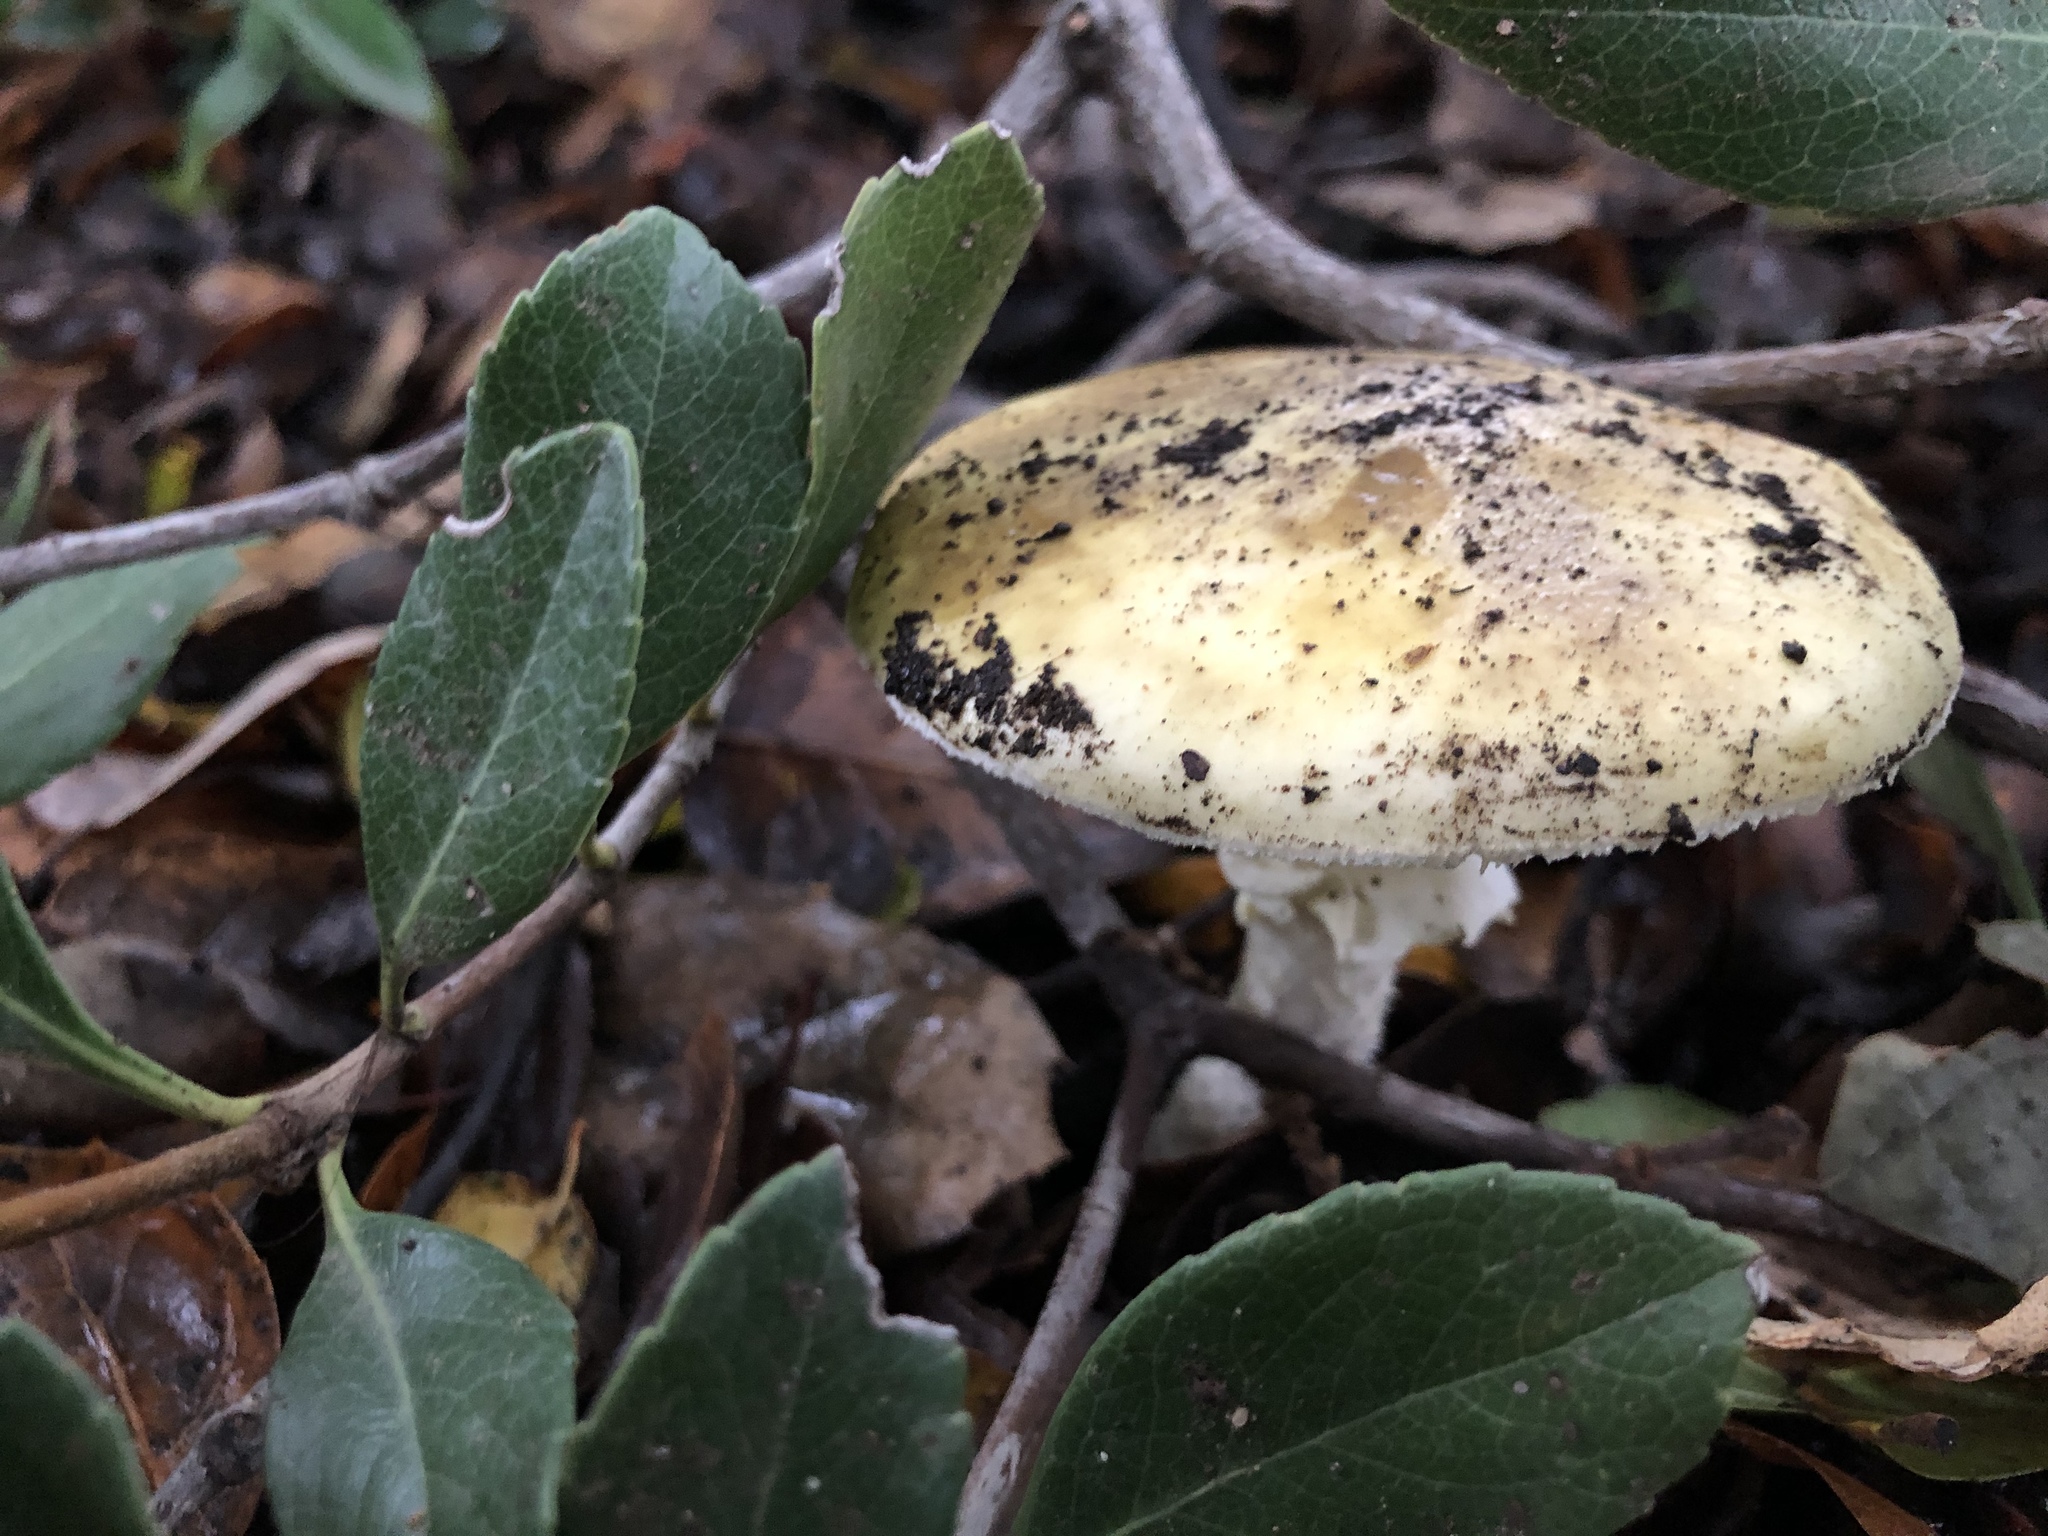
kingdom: Fungi
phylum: Basidiomycota
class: Agaricomycetes
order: Agaricales
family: Amanitaceae
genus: Amanita
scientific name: Amanita phalloides
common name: Death cap
